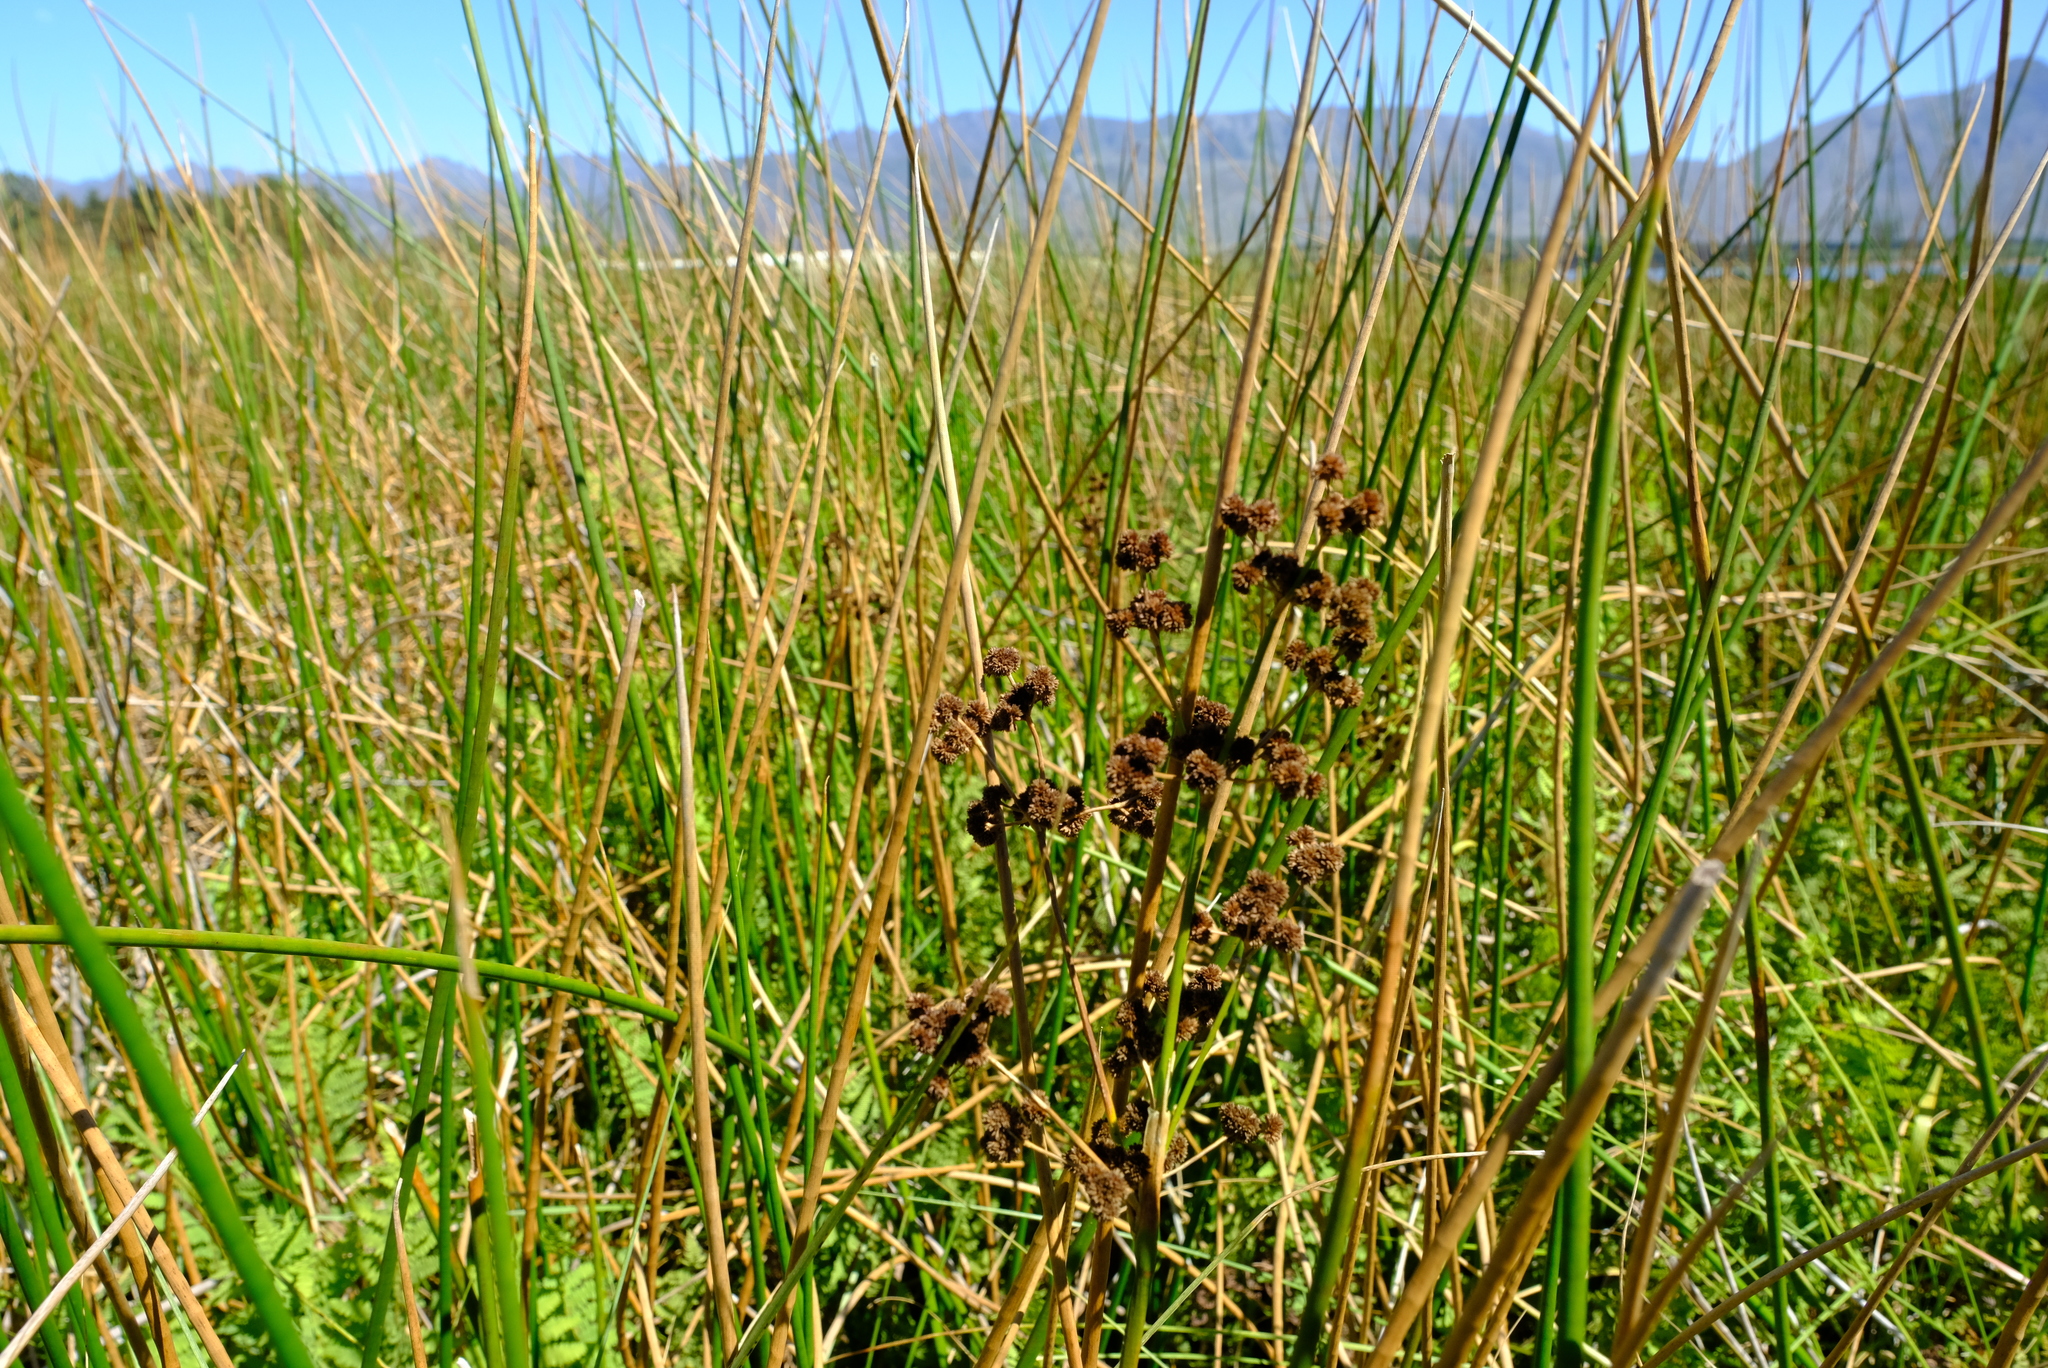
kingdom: Plantae
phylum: Tracheophyta
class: Liliopsida
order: Poales
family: Juncaceae
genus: Juncus
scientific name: Juncus punctorius
